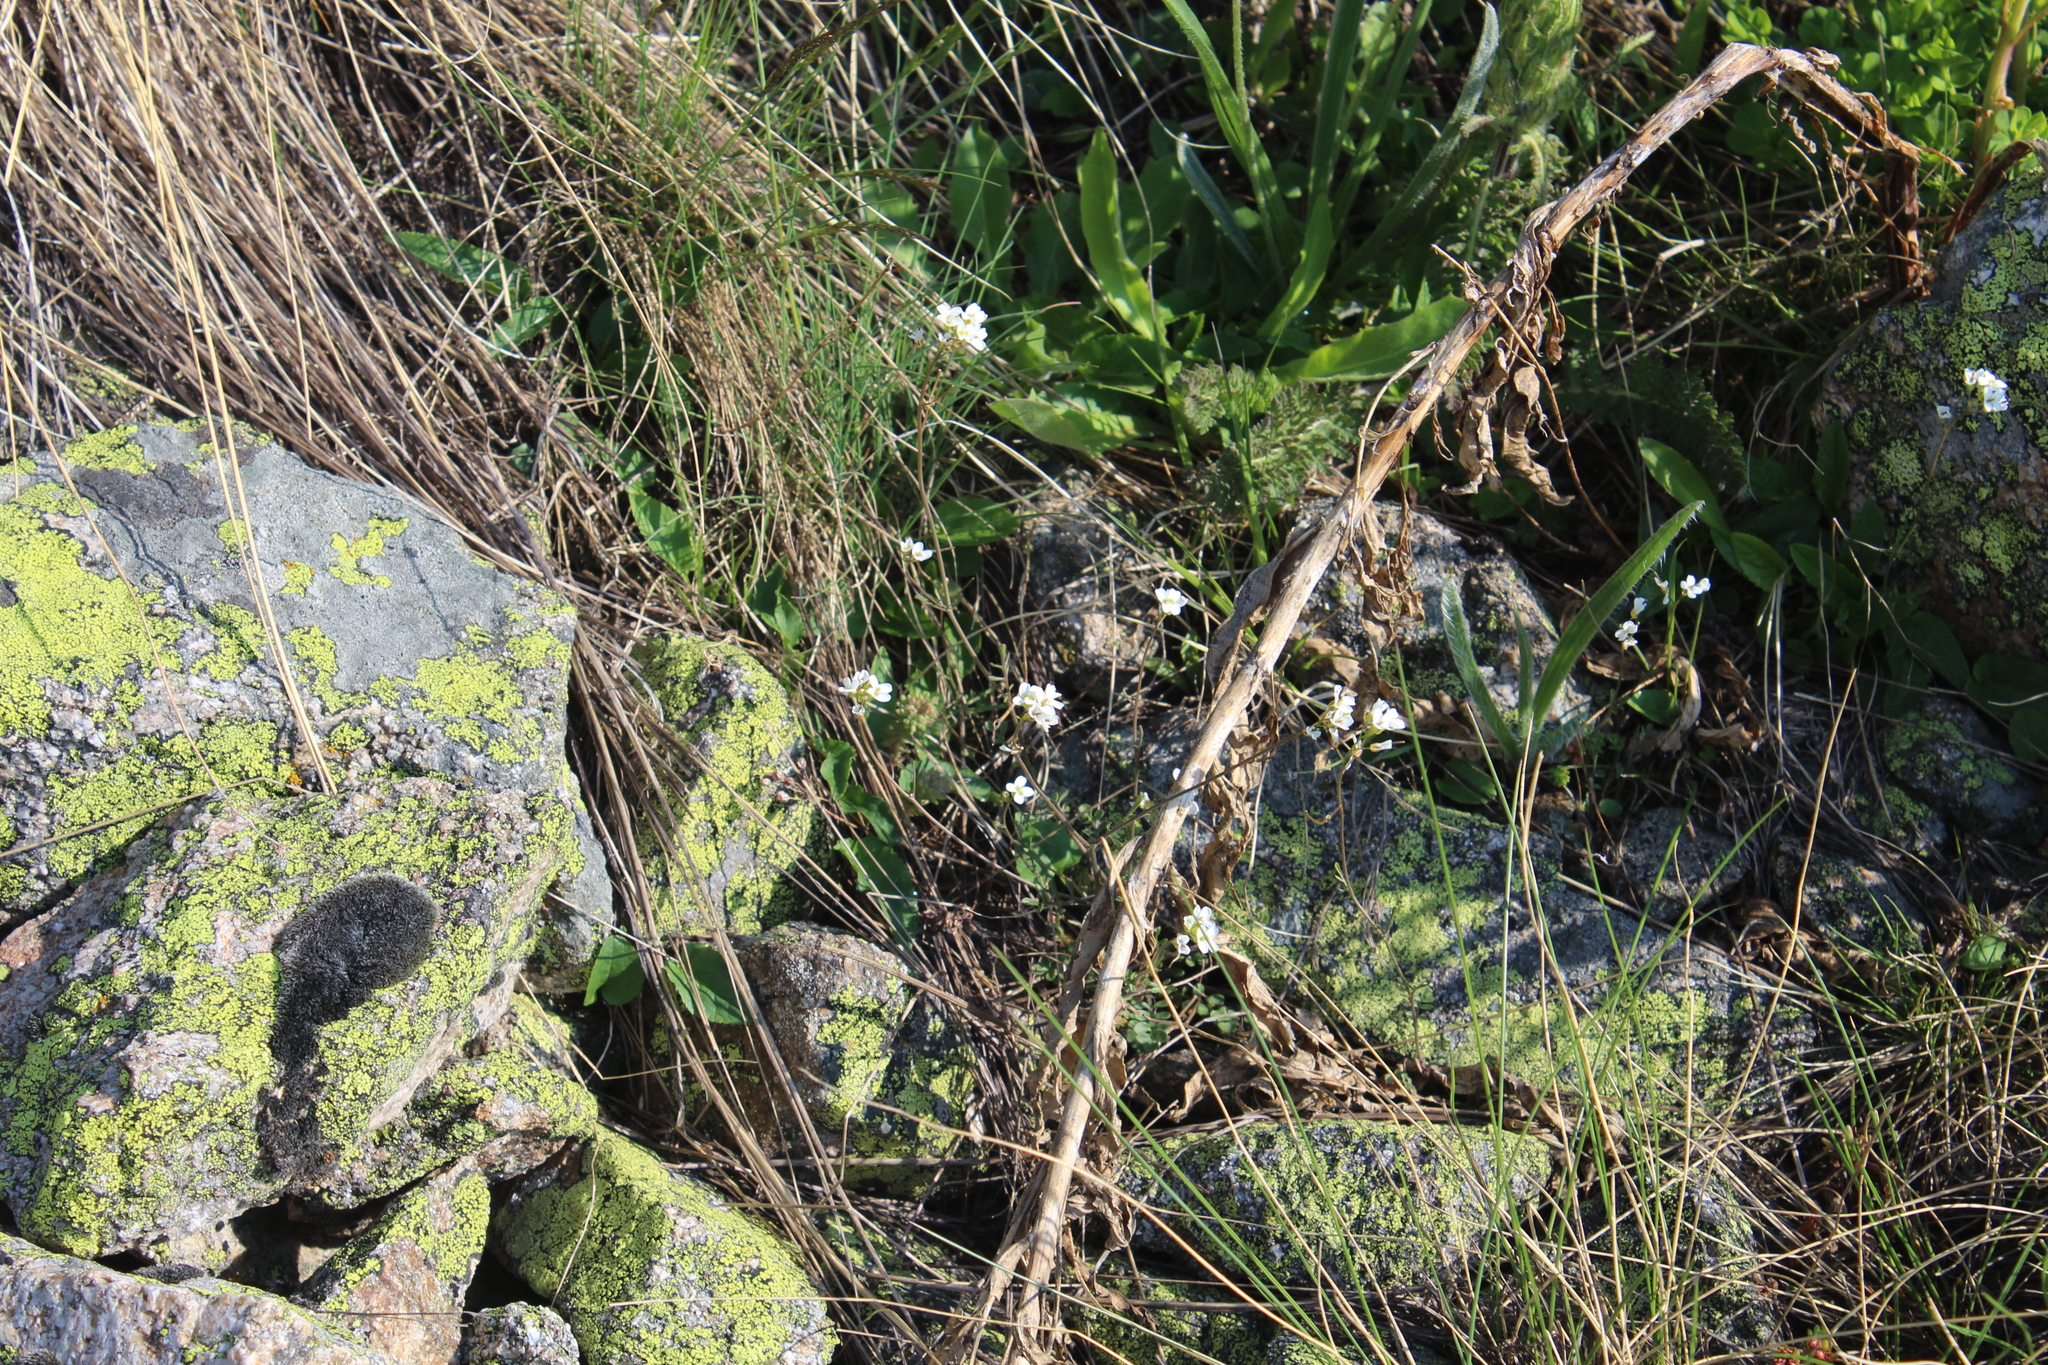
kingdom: Plantae
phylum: Tracheophyta
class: Magnoliopsida
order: Brassicales
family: Brassicaceae
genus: Murbeckiella
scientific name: Murbeckiella huetii
